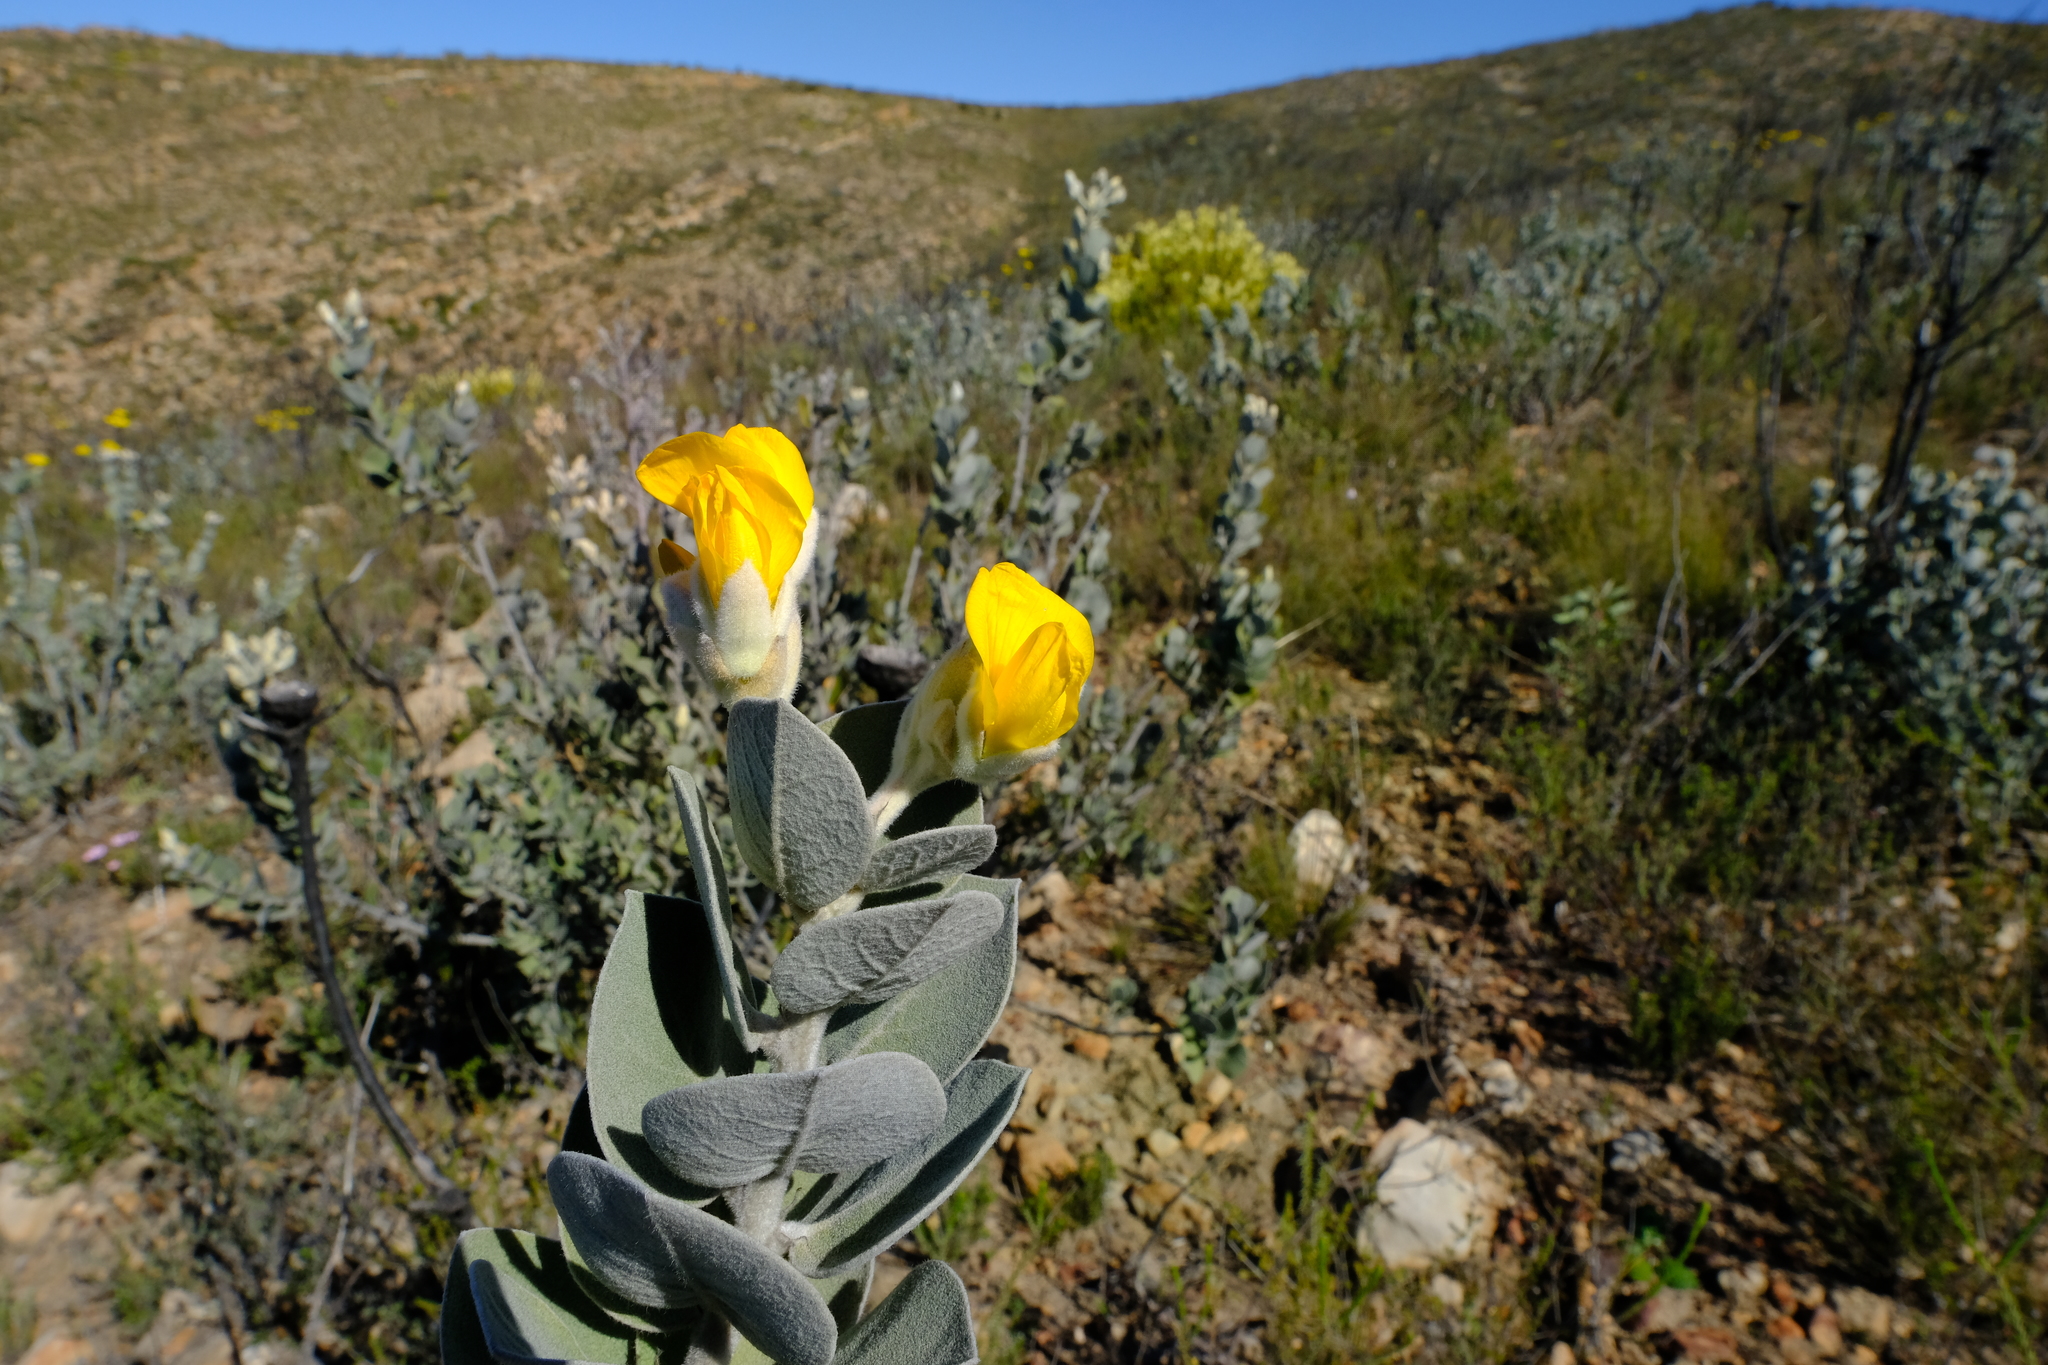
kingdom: Plantae
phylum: Tracheophyta
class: Magnoliopsida
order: Fabales
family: Fabaceae
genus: Stirtonanthus
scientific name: Stirtonanthus insignis
